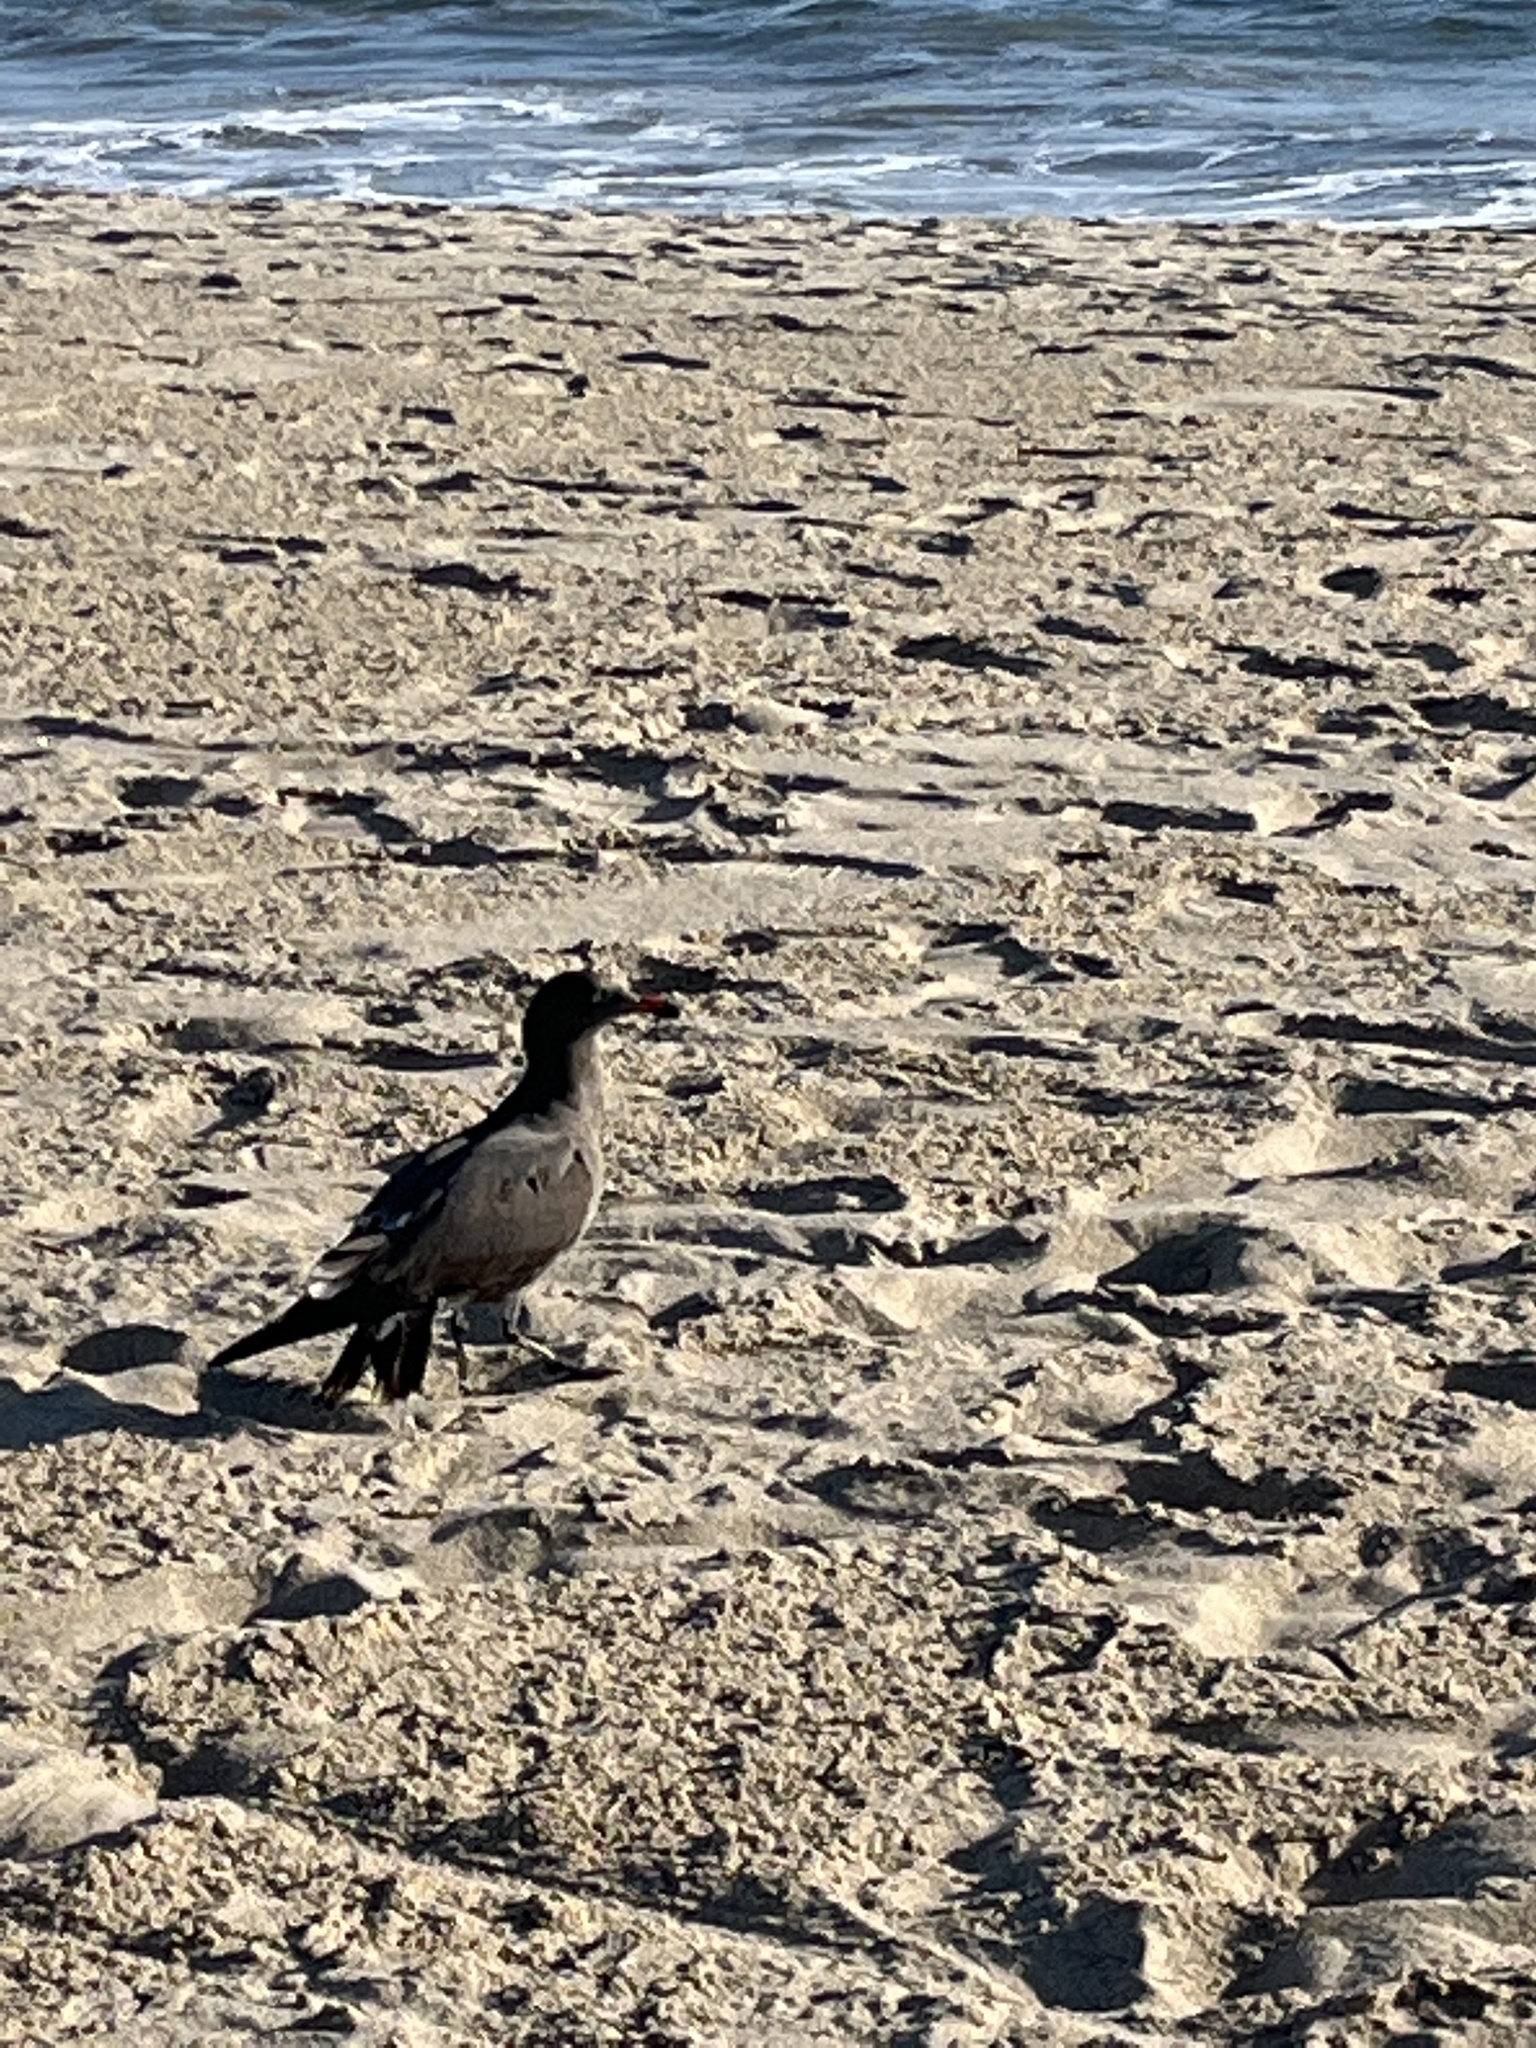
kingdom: Animalia
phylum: Chordata
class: Aves
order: Charadriiformes
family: Laridae
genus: Larus
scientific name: Larus heermanni
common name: Heermann's gull
